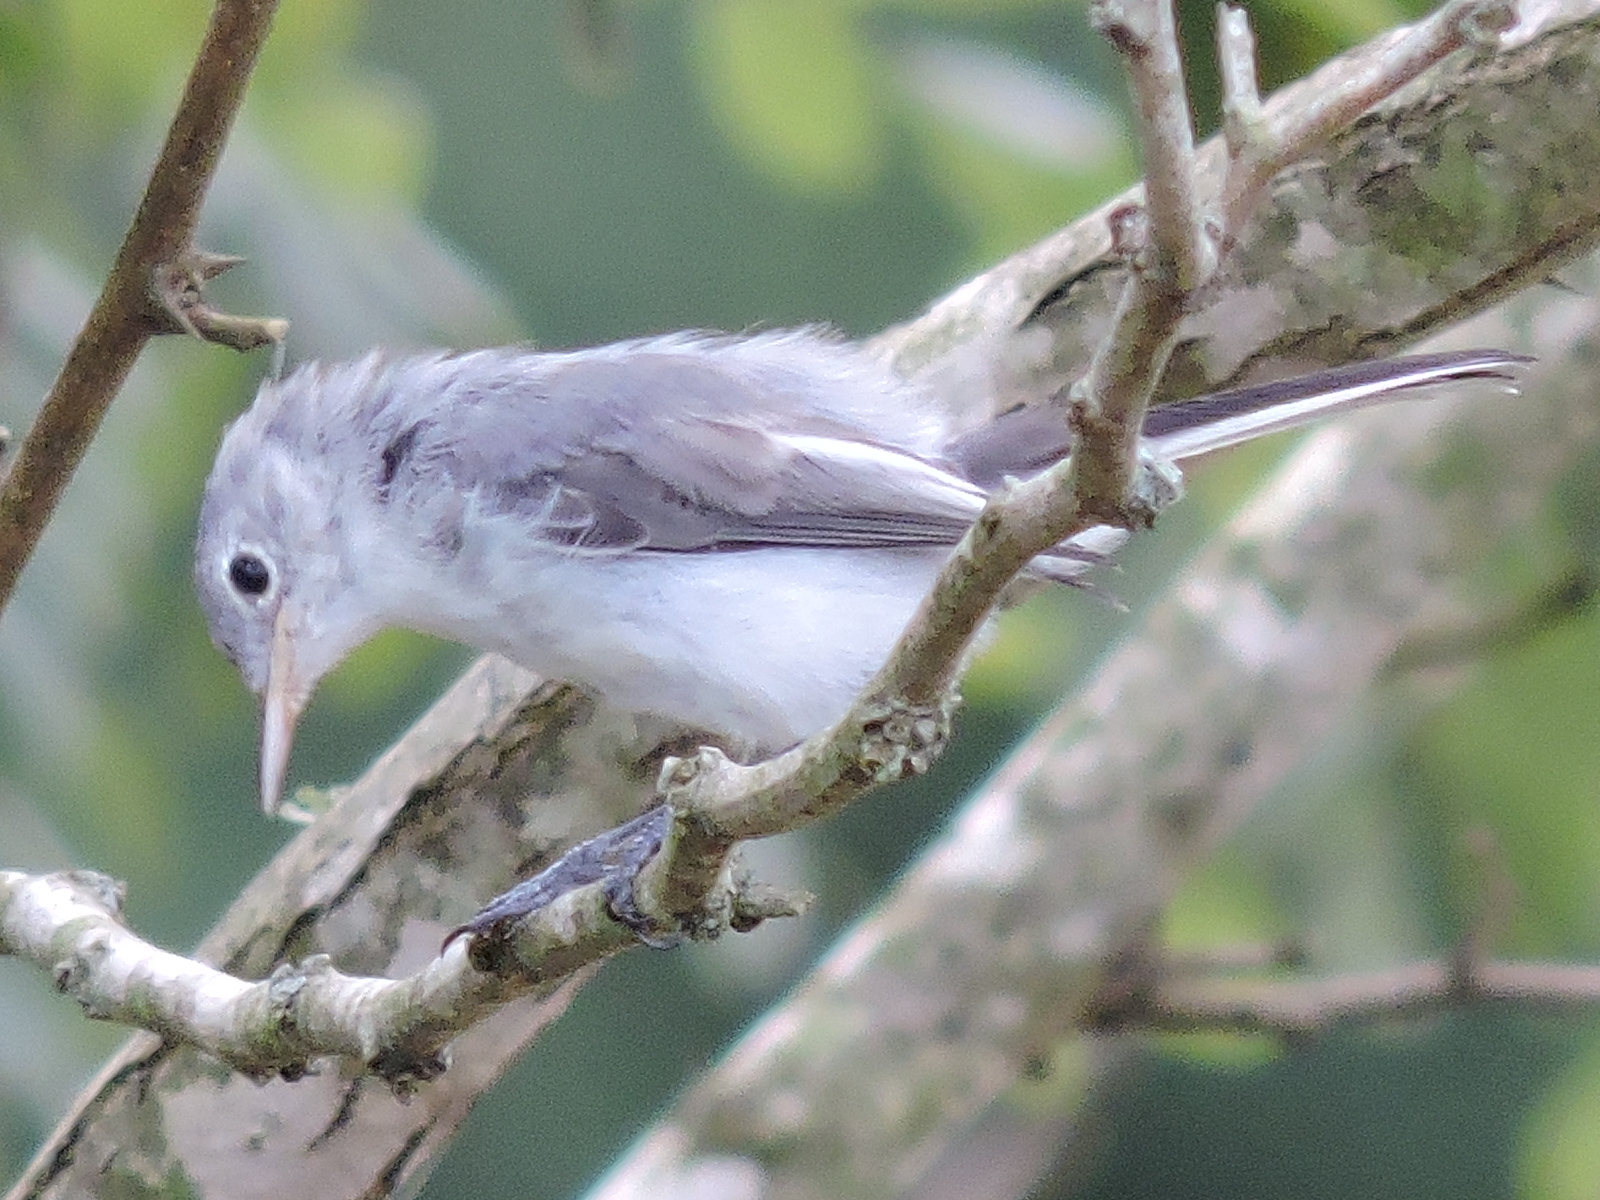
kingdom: Animalia
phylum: Chordata
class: Aves
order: Passeriformes
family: Polioptilidae
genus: Polioptila
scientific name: Polioptila caerulea
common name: Blue-gray gnatcatcher
